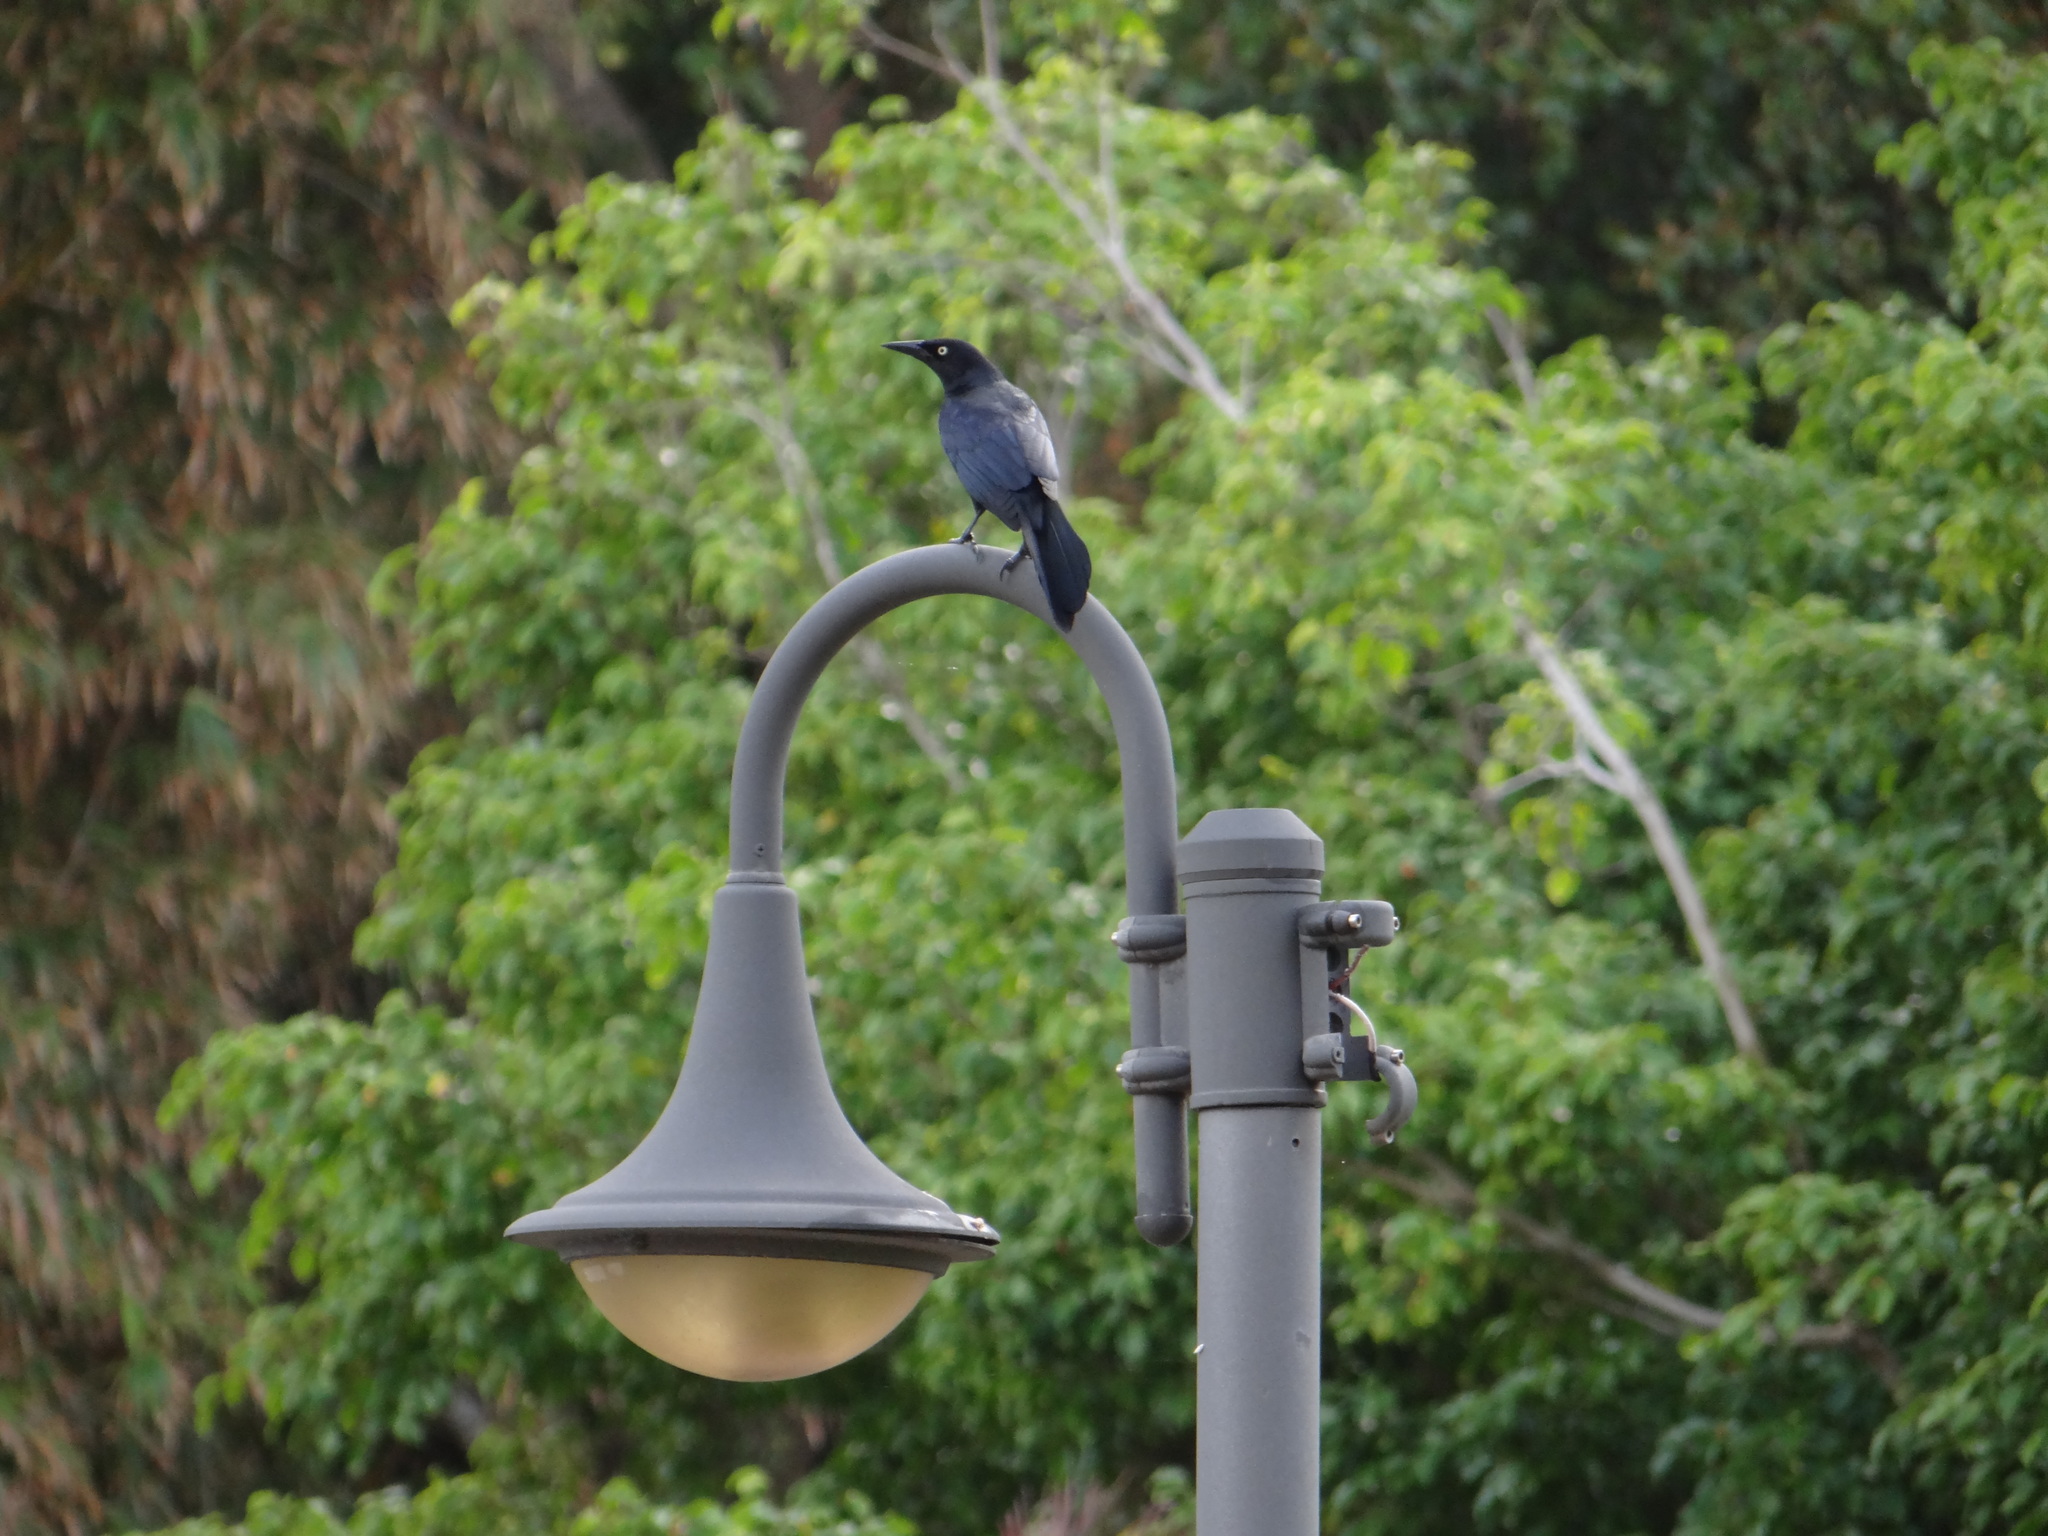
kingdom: Animalia
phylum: Chordata
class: Aves
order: Passeriformes
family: Icteridae
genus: Quiscalus
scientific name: Quiscalus niger
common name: Greater antillean grackle
